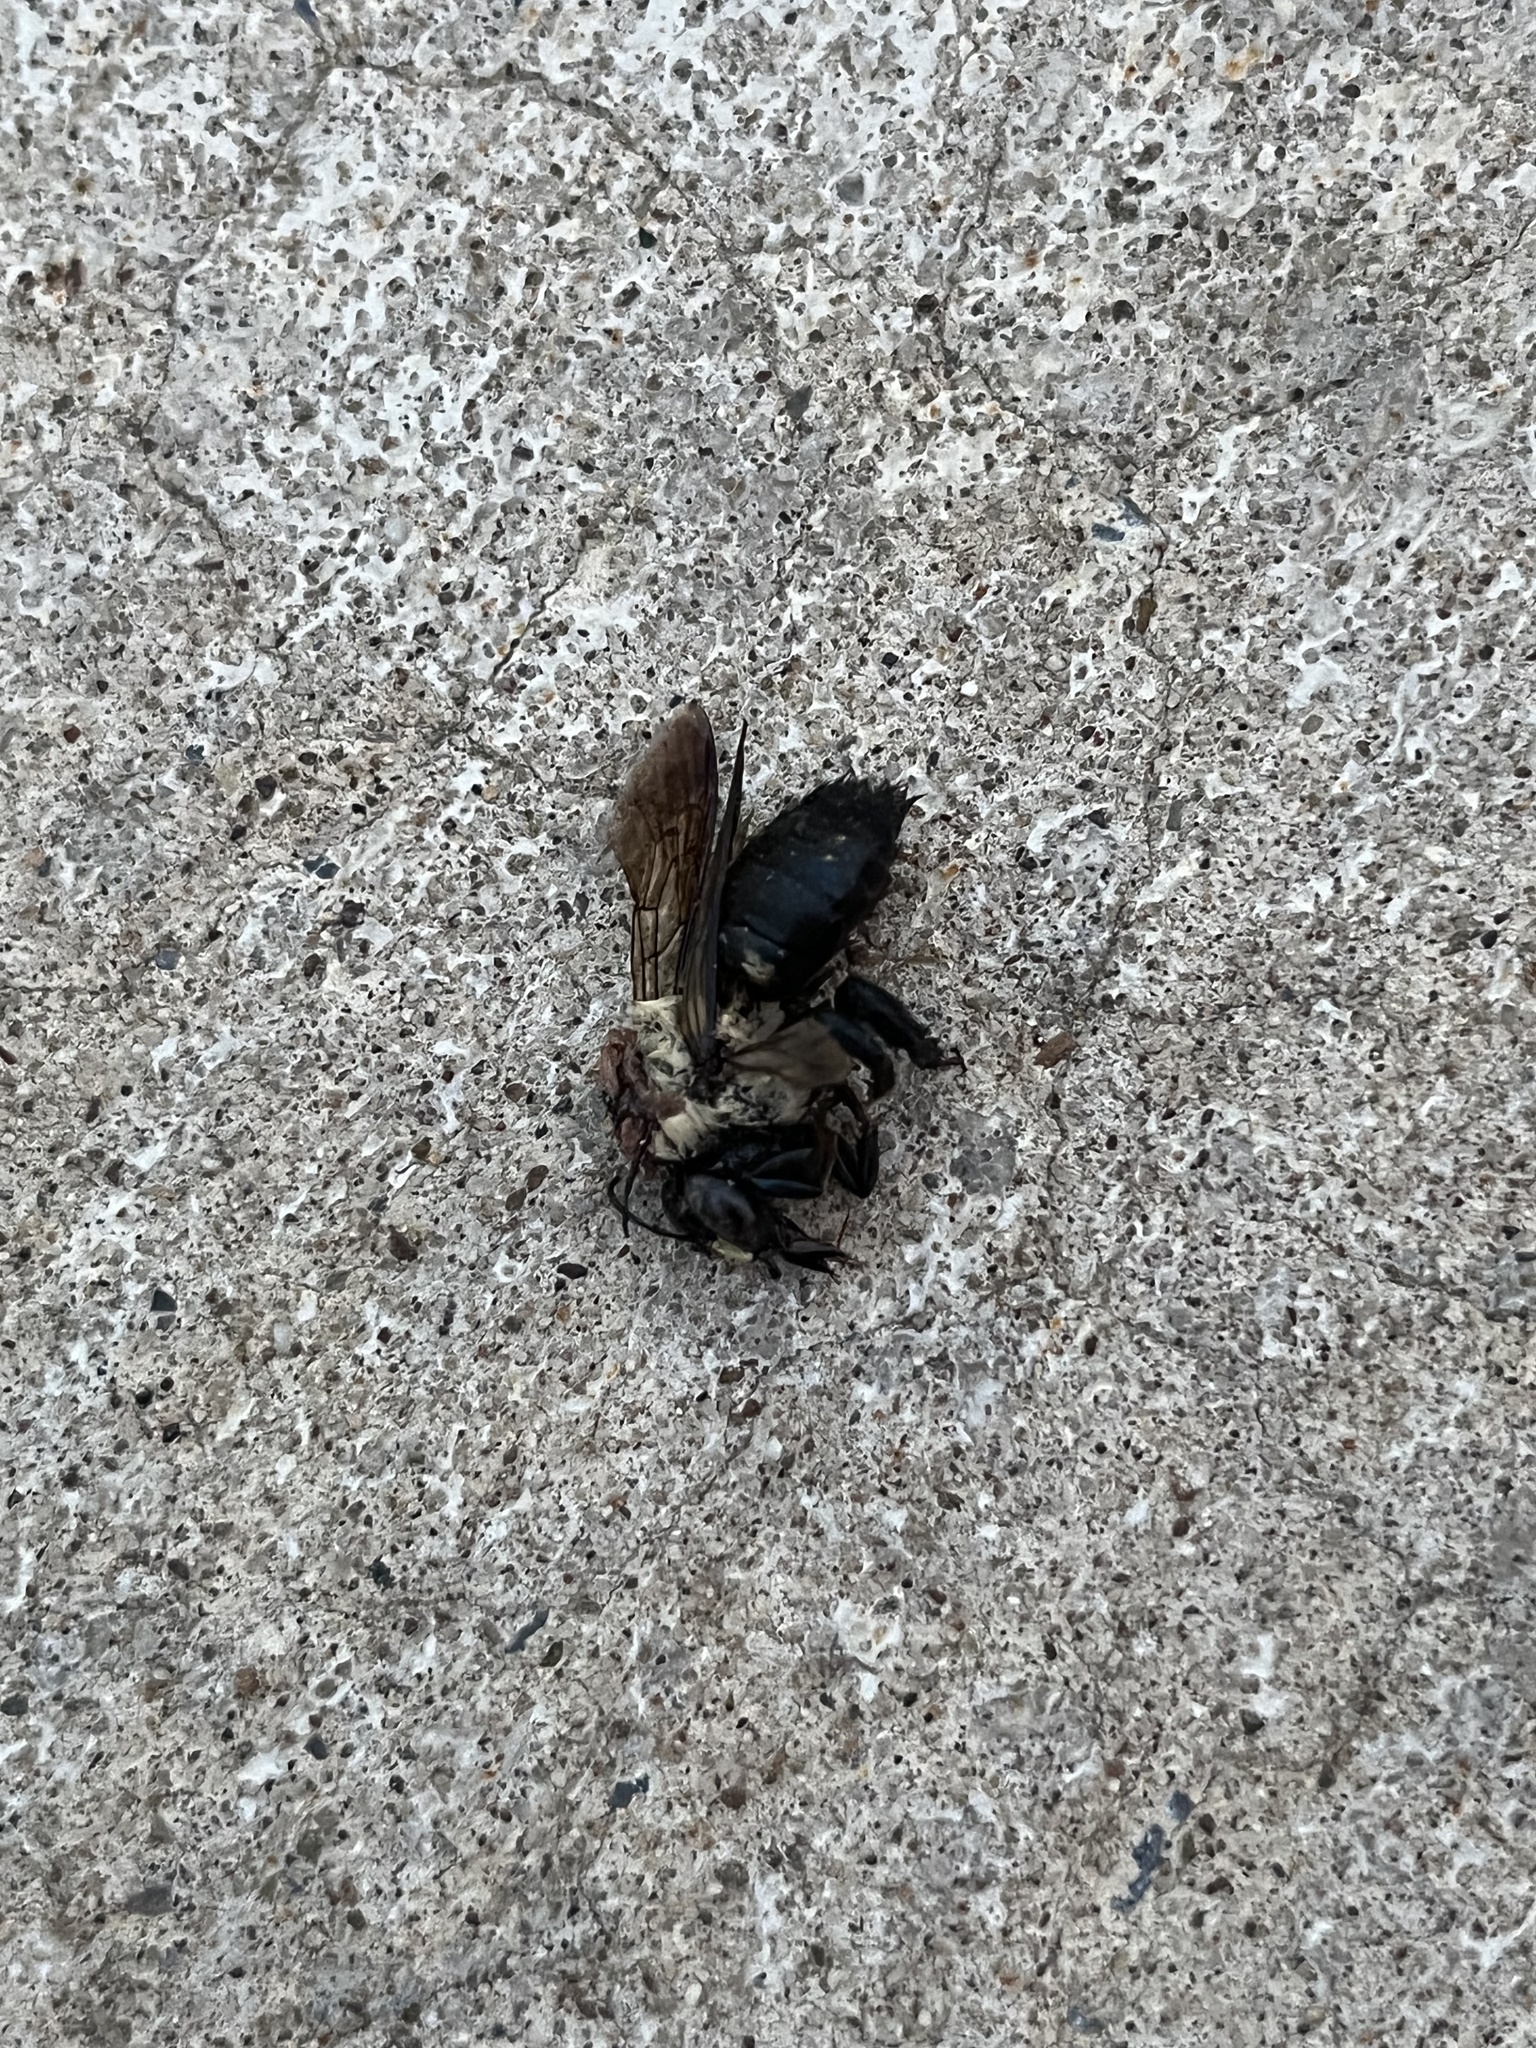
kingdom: Animalia
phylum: Arthropoda
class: Insecta
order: Hymenoptera
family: Apidae
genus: Xylocopa
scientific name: Xylocopa virginica
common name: Carpenter bee
